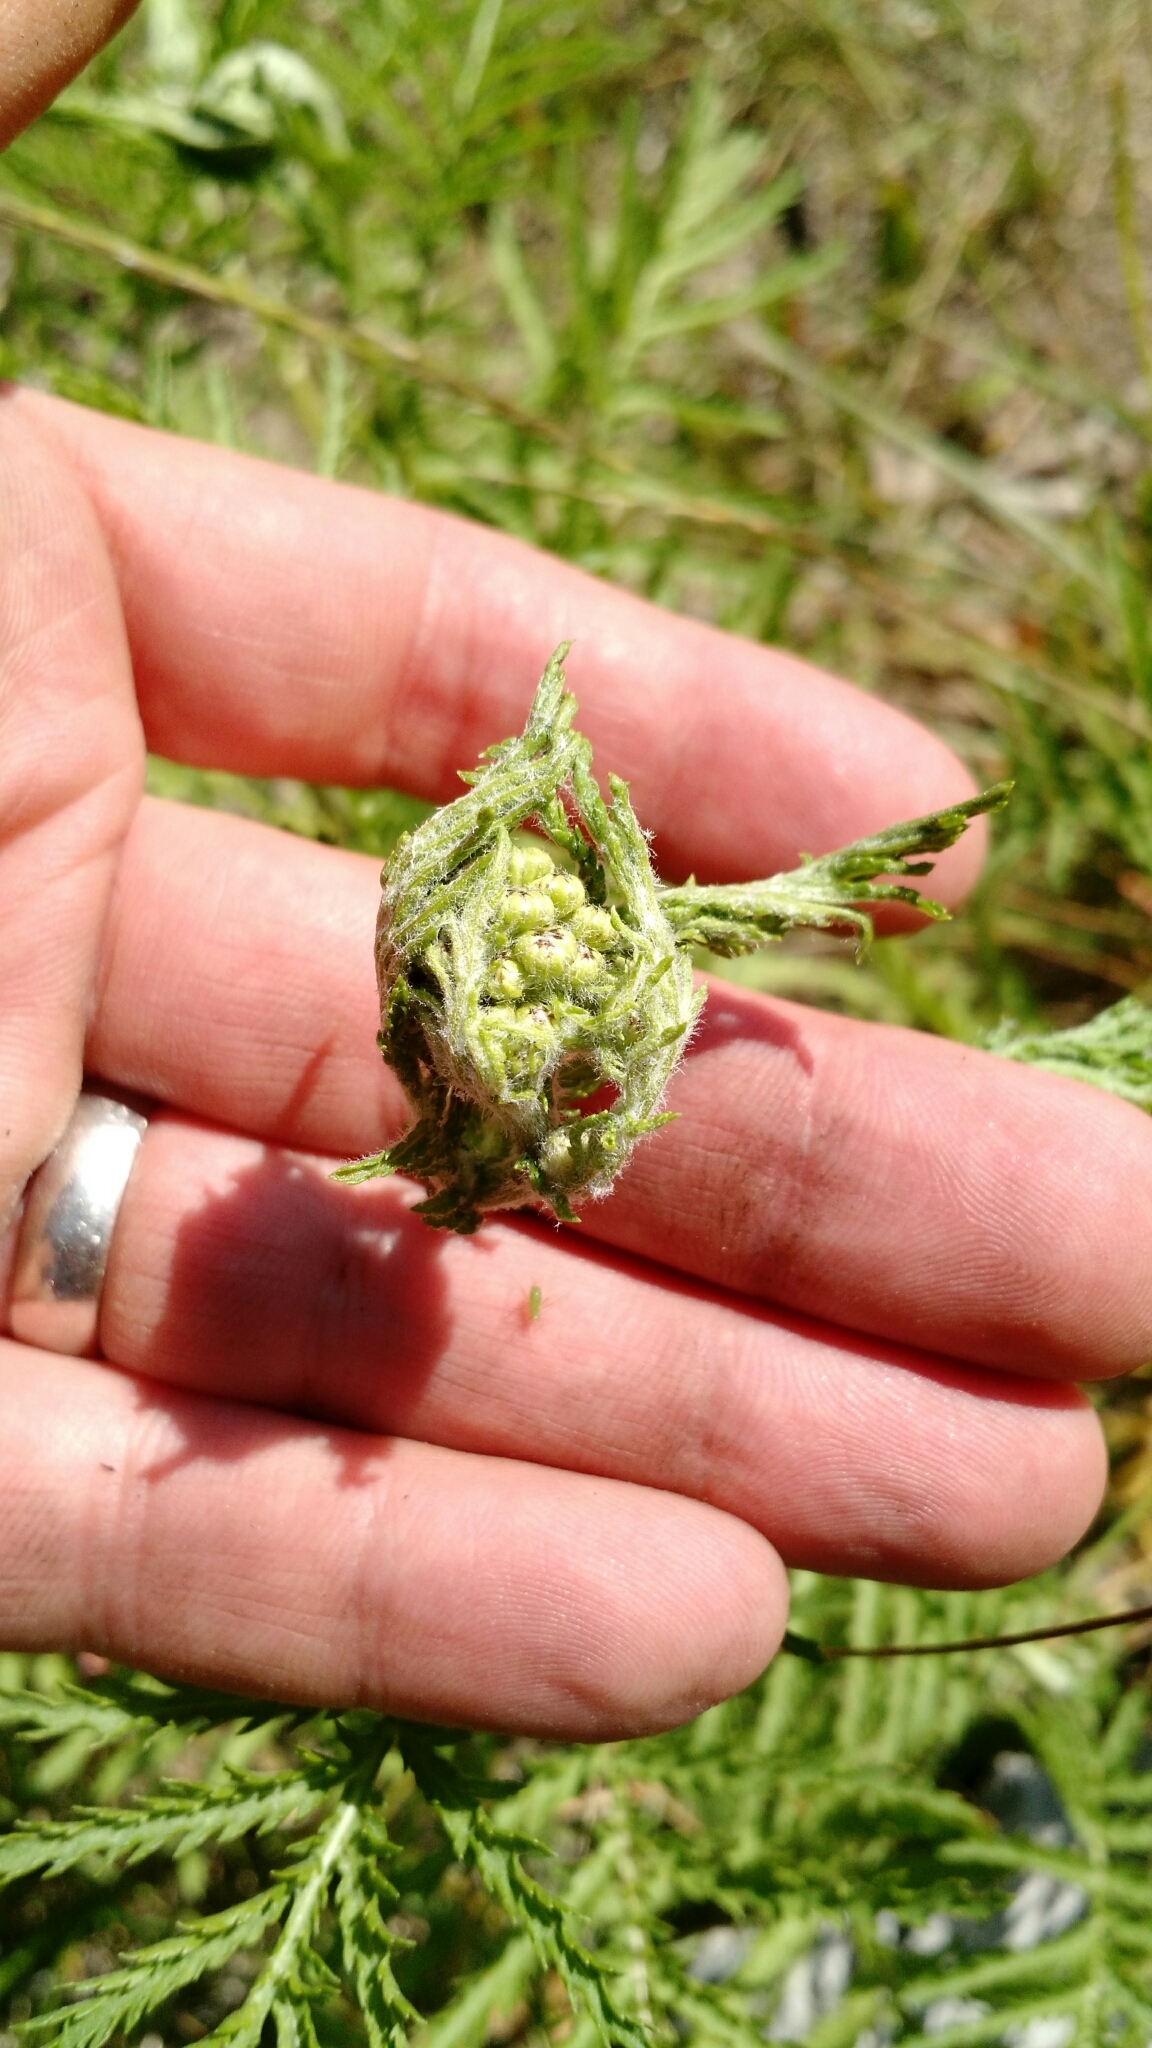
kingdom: Plantae
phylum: Tracheophyta
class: Magnoliopsida
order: Asterales
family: Asteraceae
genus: Tanacetum
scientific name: Tanacetum vulgare
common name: Common tansy
